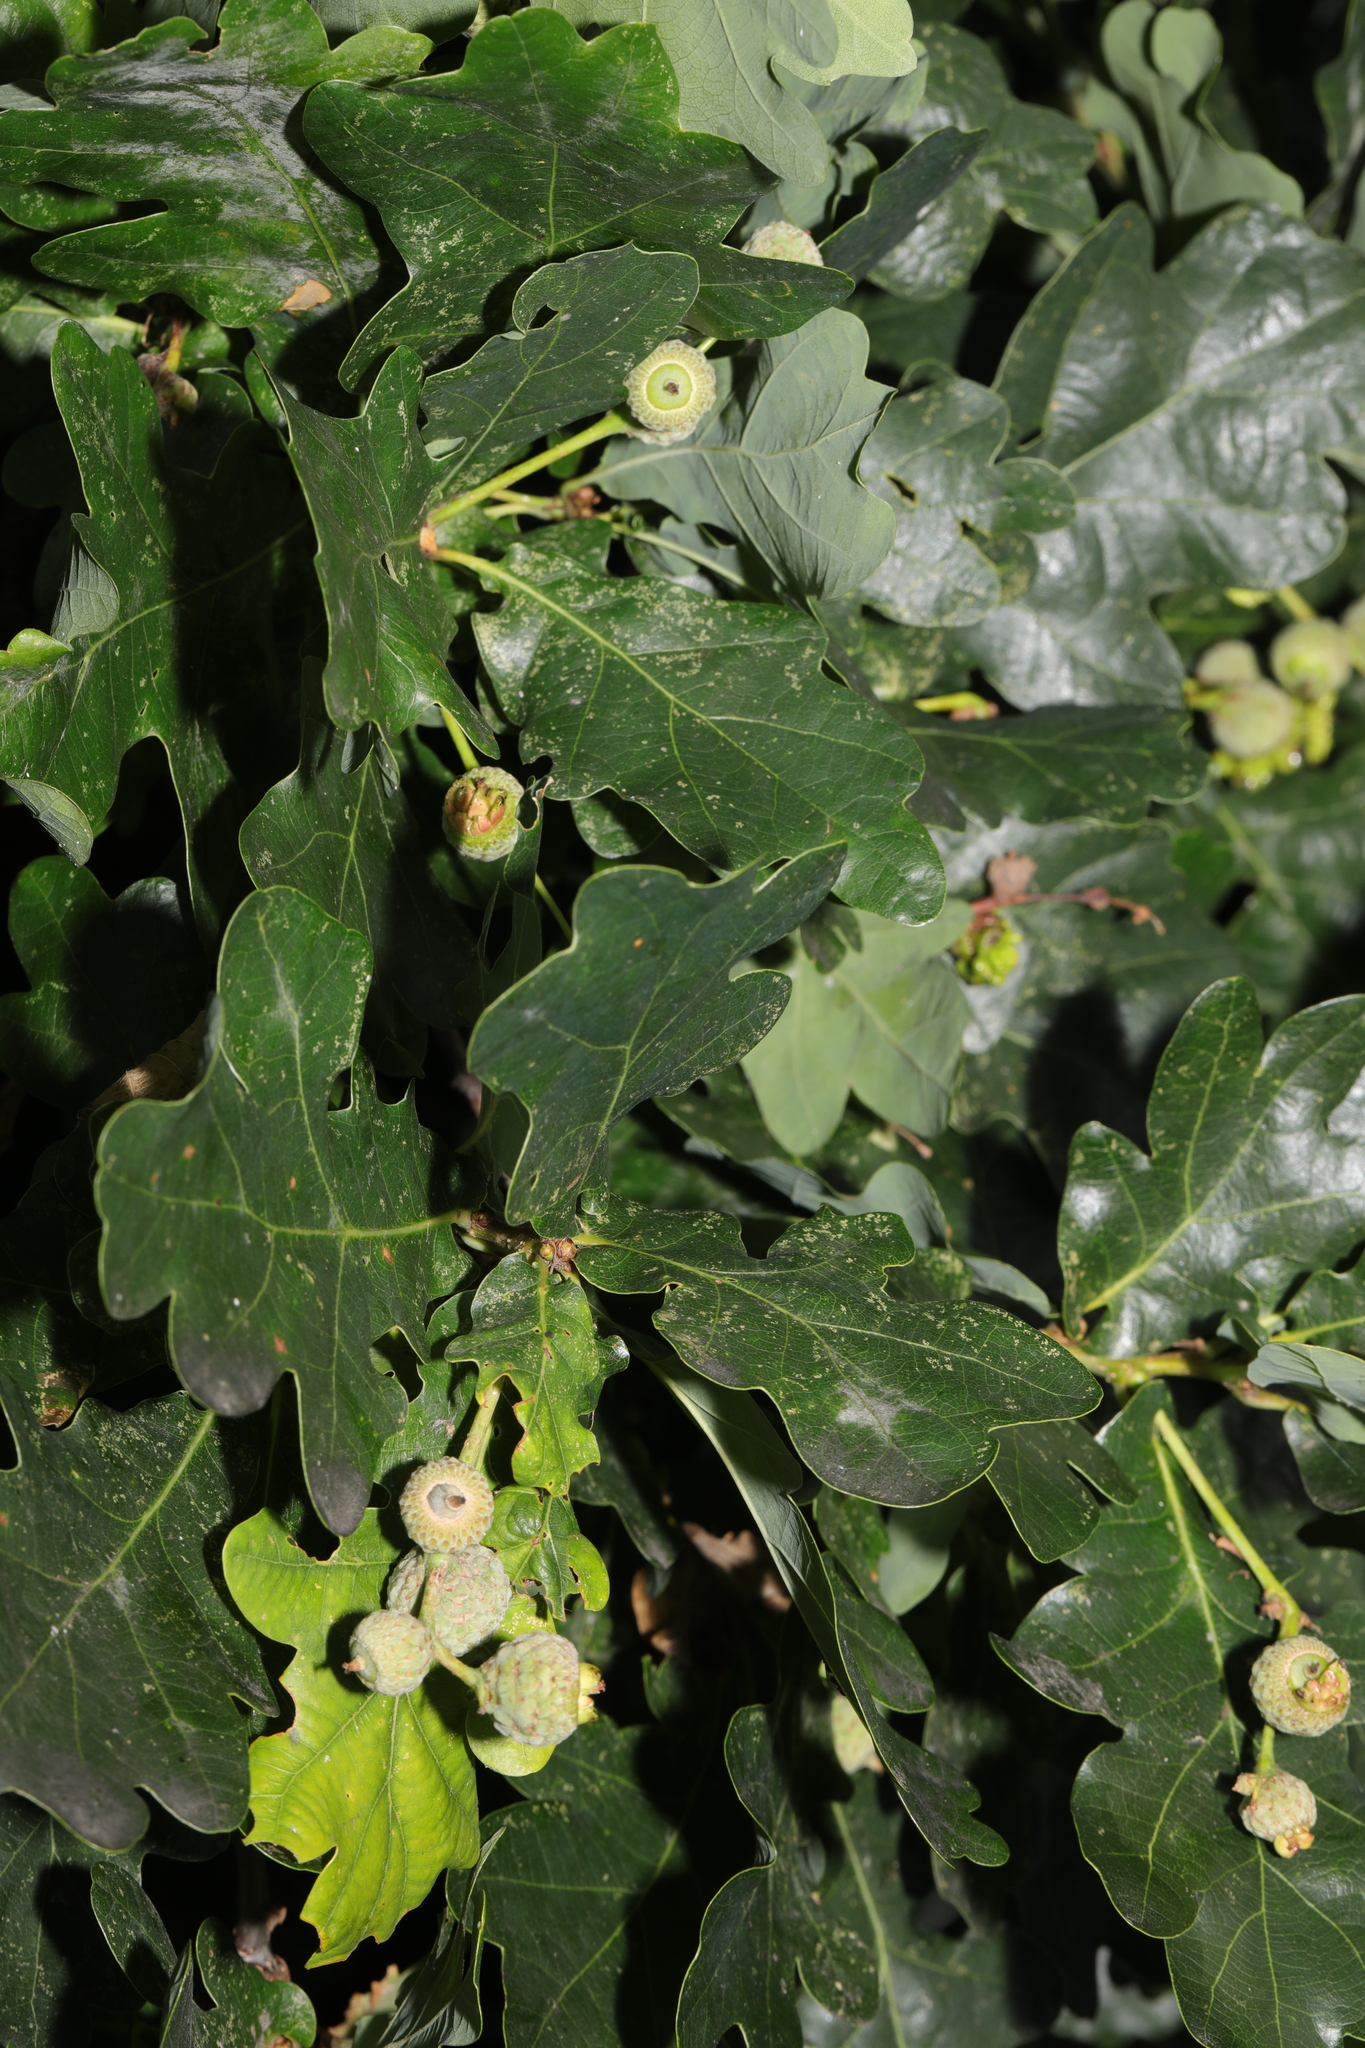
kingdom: Plantae
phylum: Tracheophyta
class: Magnoliopsida
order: Fagales
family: Fagaceae
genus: Quercus
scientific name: Quercus robur
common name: Pedunculate oak
